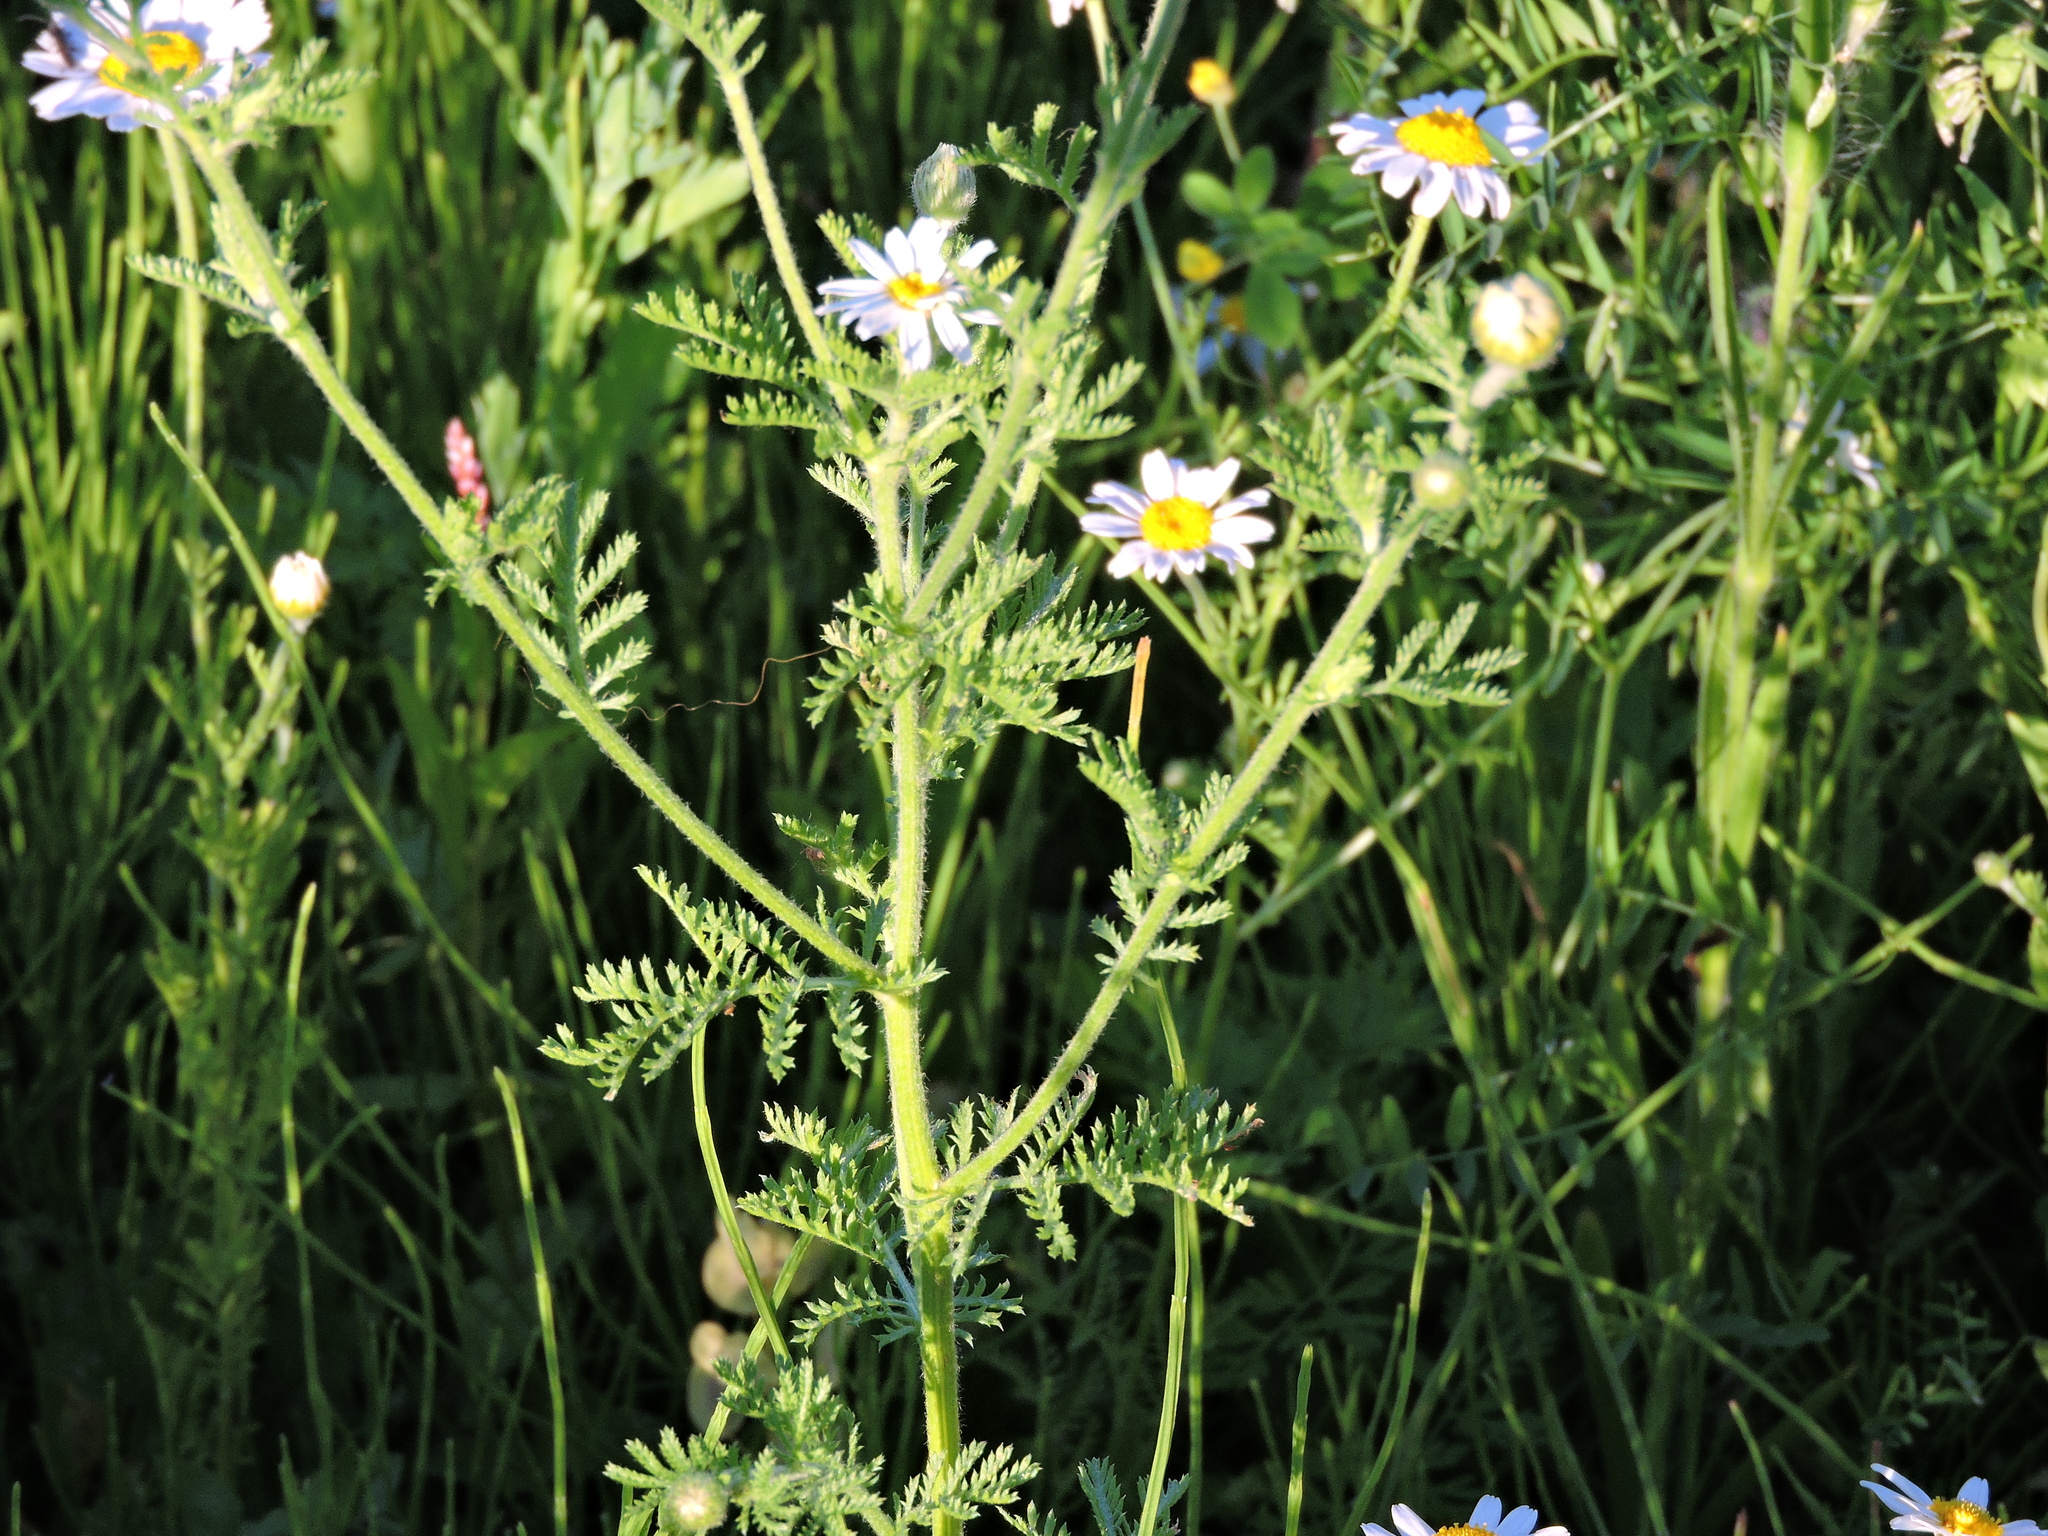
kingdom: Plantae
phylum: Tracheophyta
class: Magnoliopsida
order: Asterales
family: Asteraceae
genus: Cota
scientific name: Cota austriaca
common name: Austrian chamomile
